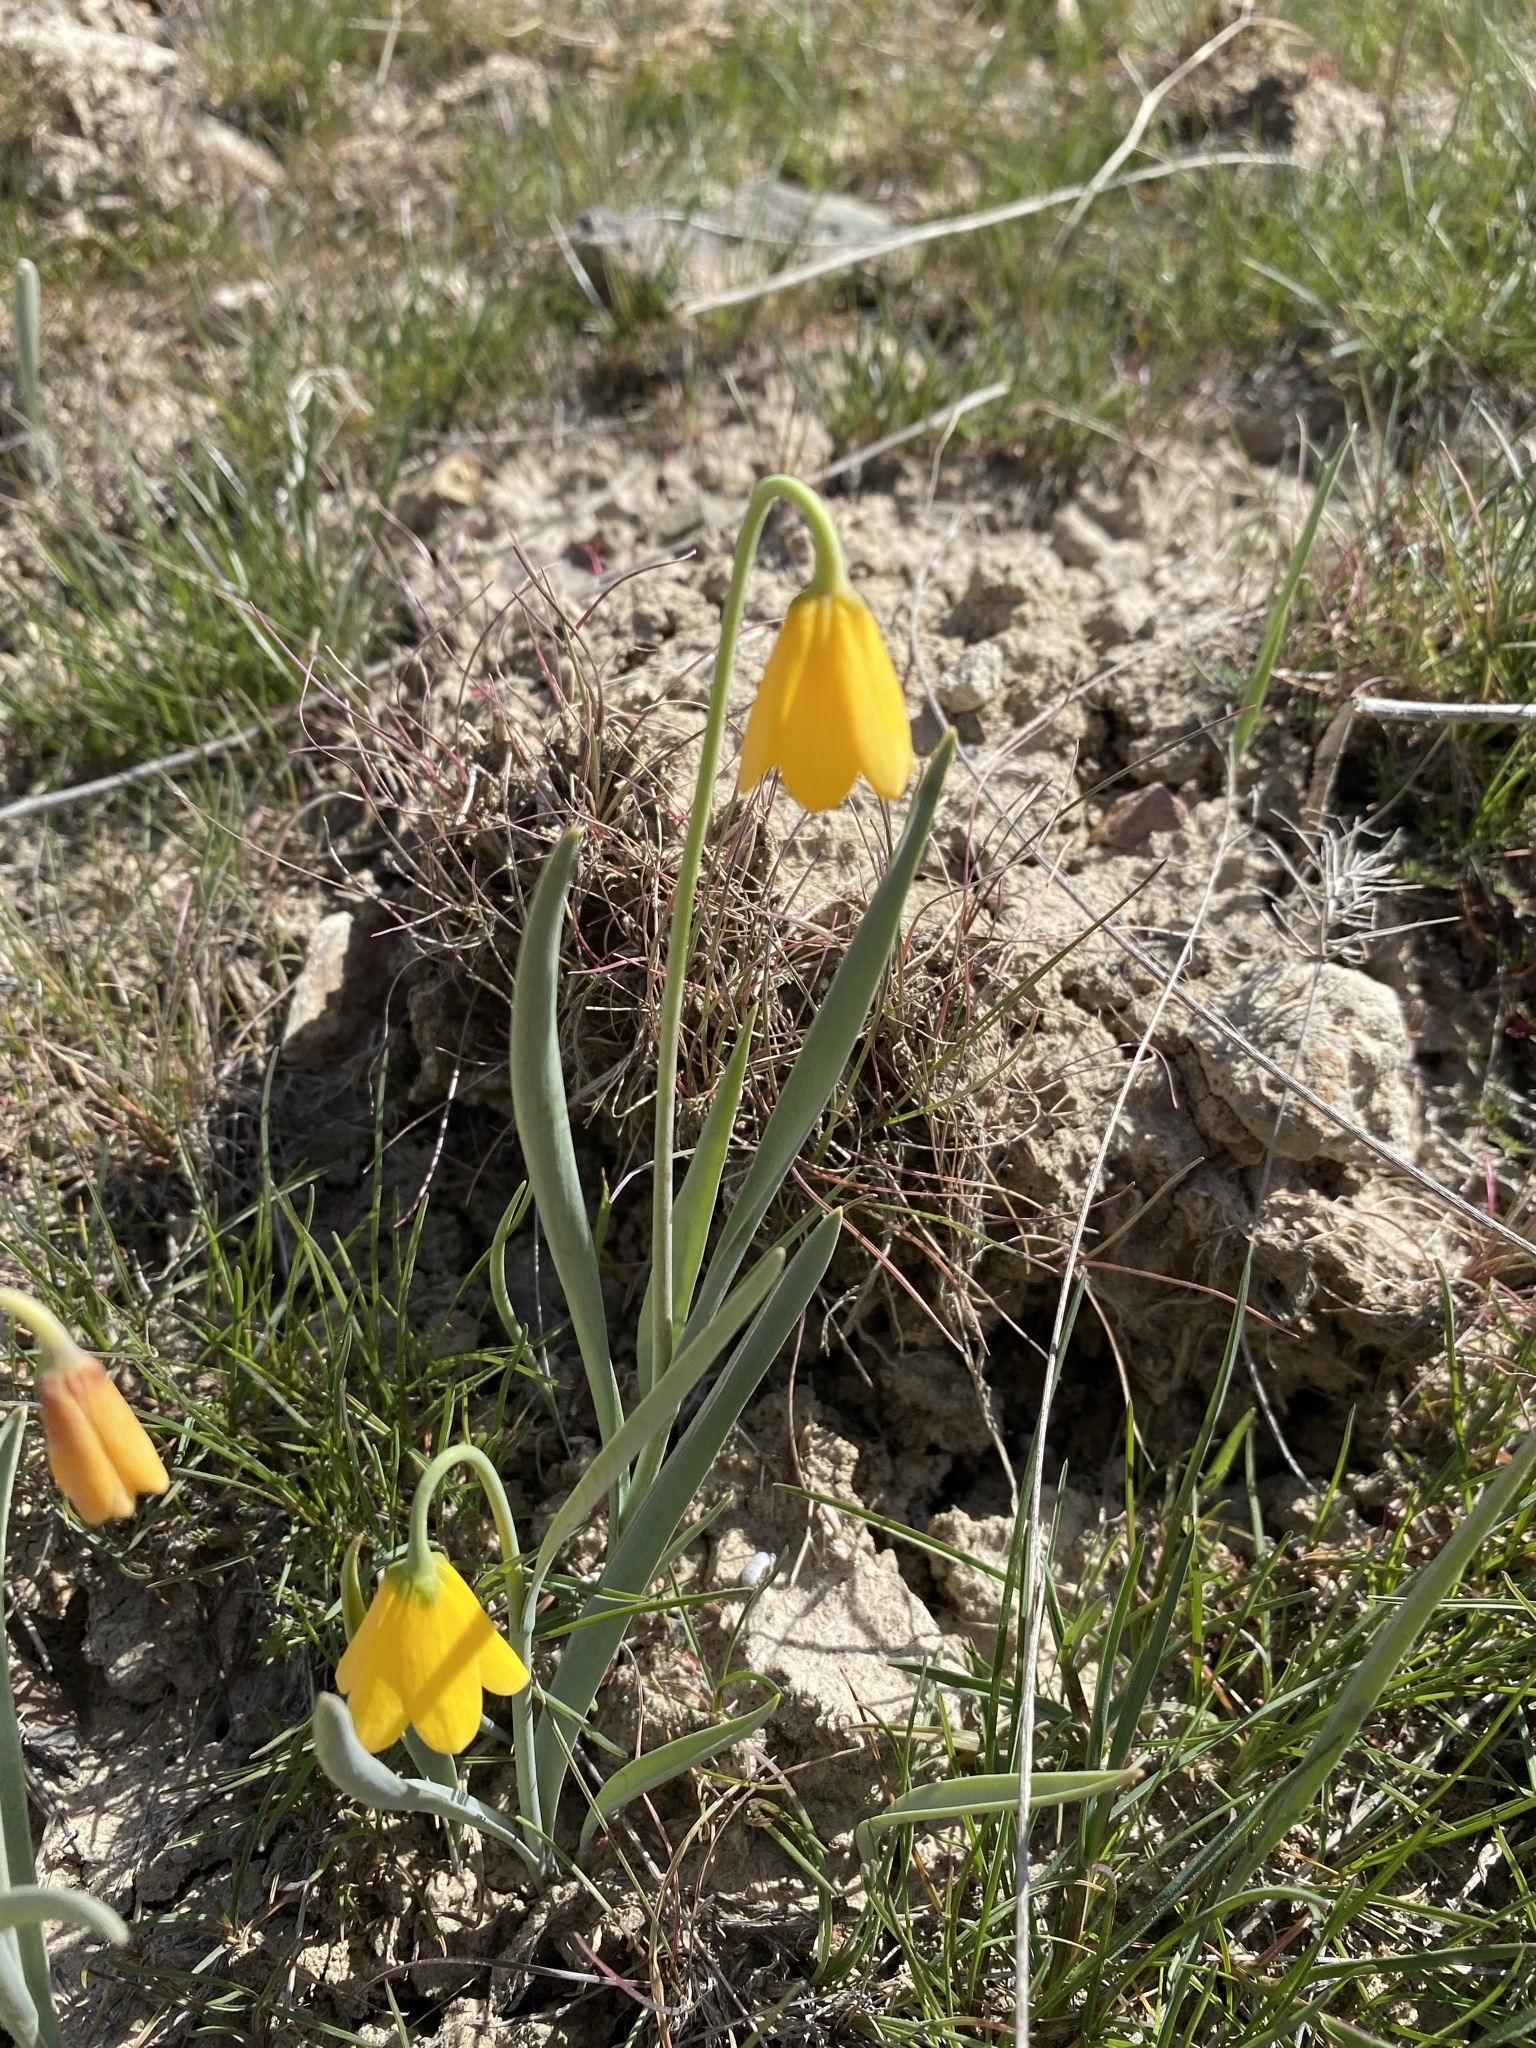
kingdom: Plantae
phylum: Tracheophyta
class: Liliopsida
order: Liliales
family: Liliaceae
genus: Fritillaria
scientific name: Fritillaria pudica
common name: Yellow fritillary
